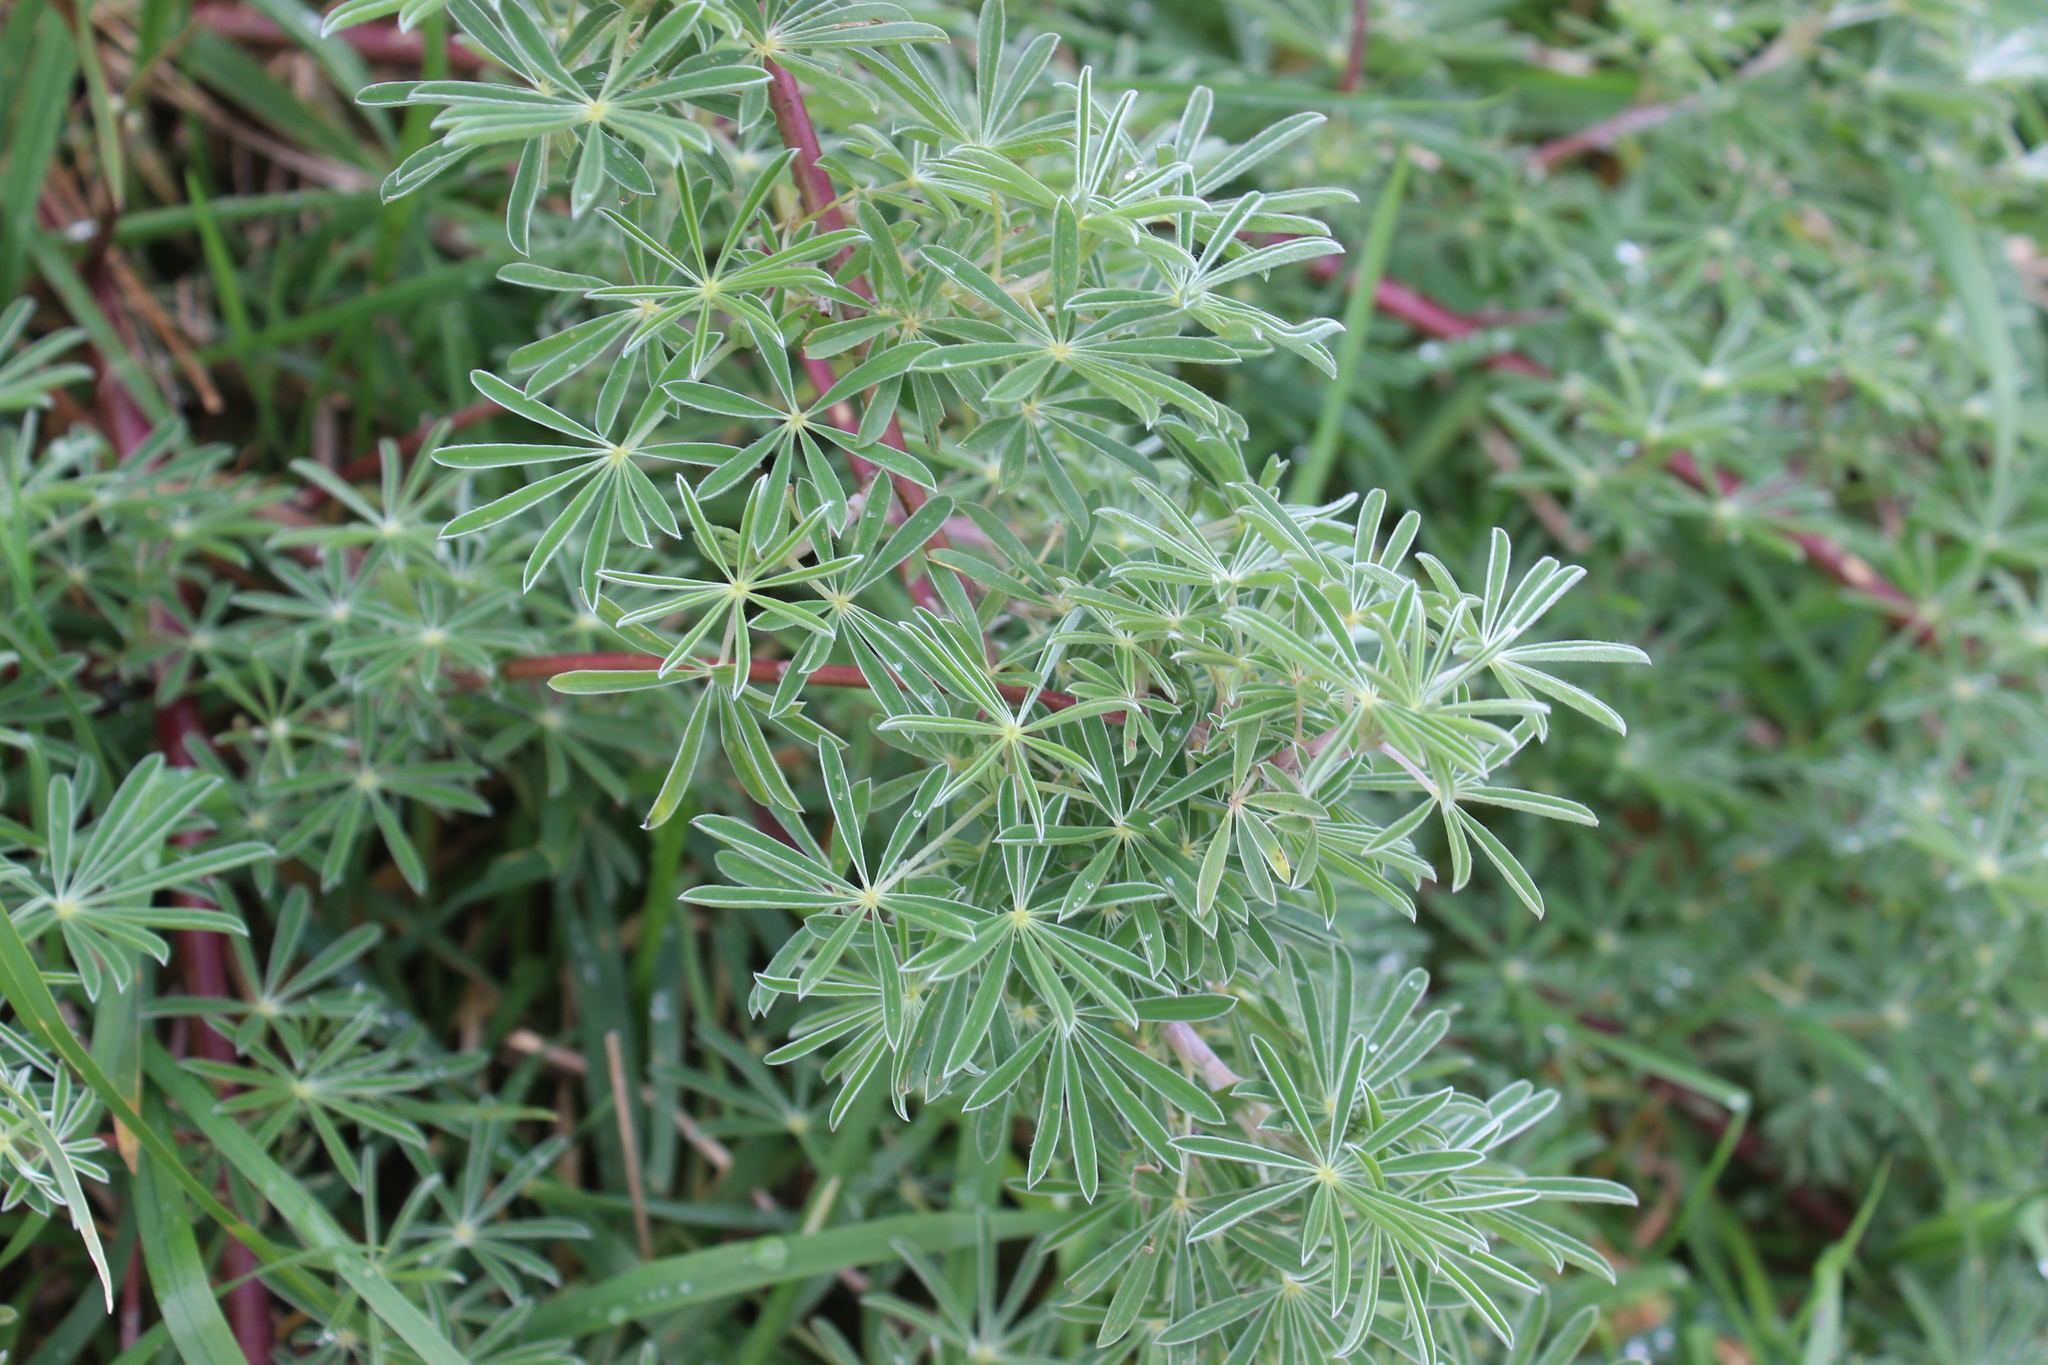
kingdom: Plantae
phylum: Tracheophyta
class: Magnoliopsida
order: Fabales
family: Fabaceae
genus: Lupinus
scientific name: Lupinus arboreus
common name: Yellow bush lupine
